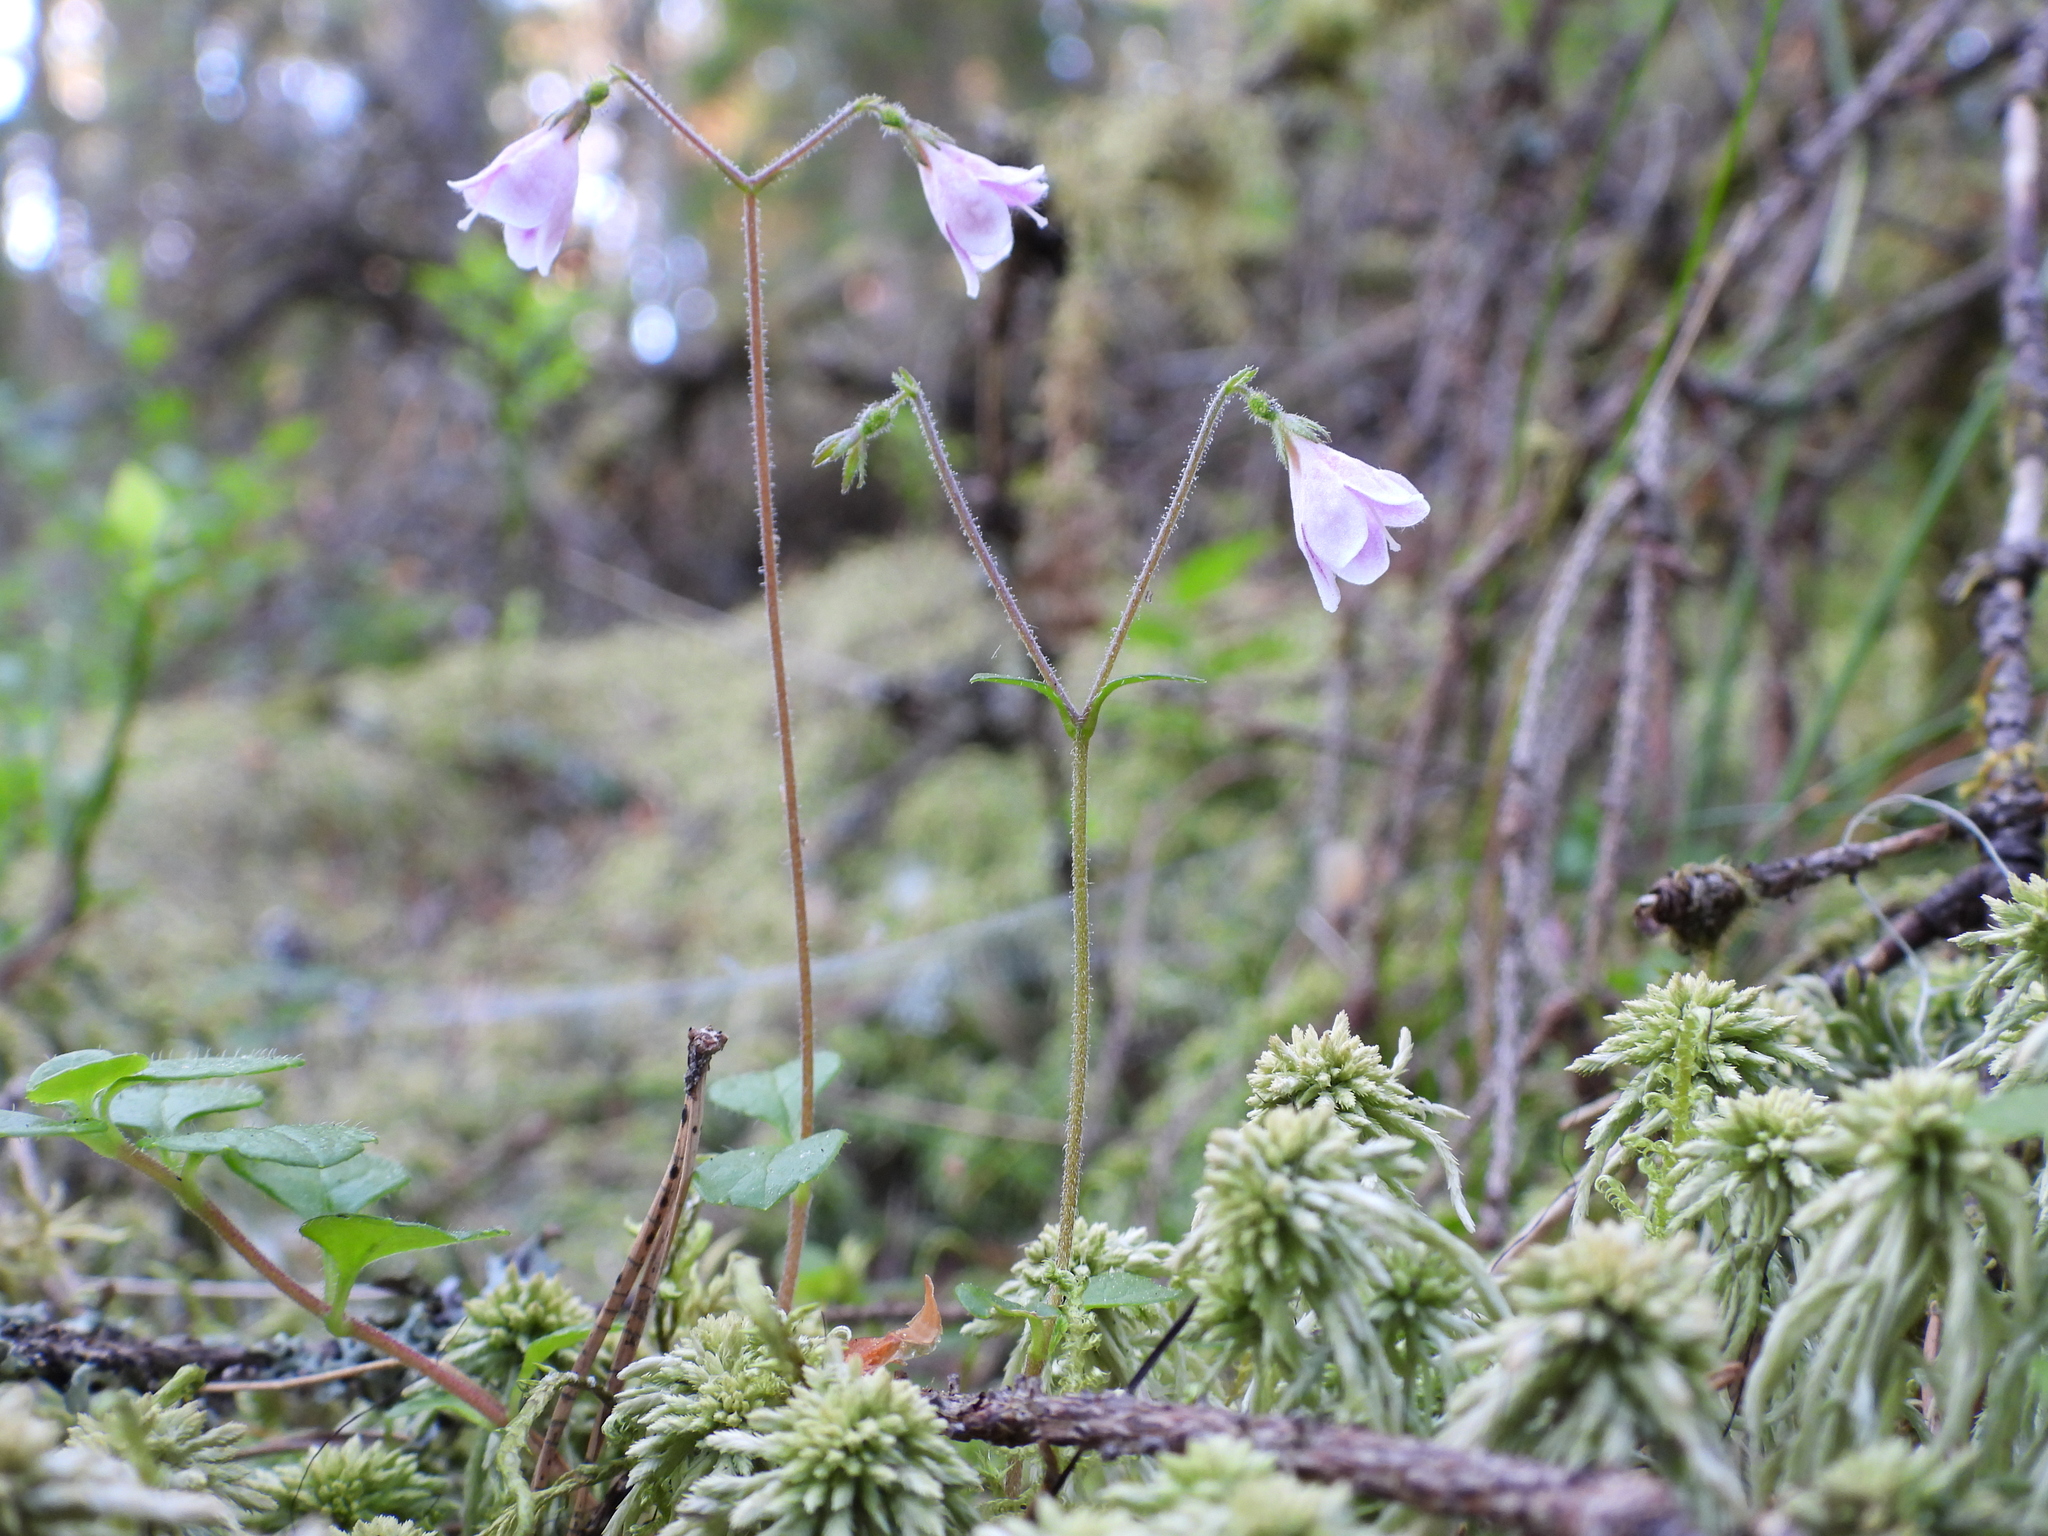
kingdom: Plantae
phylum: Tracheophyta
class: Magnoliopsida
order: Dipsacales
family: Caprifoliaceae
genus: Linnaea
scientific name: Linnaea borealis
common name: Twinflower
